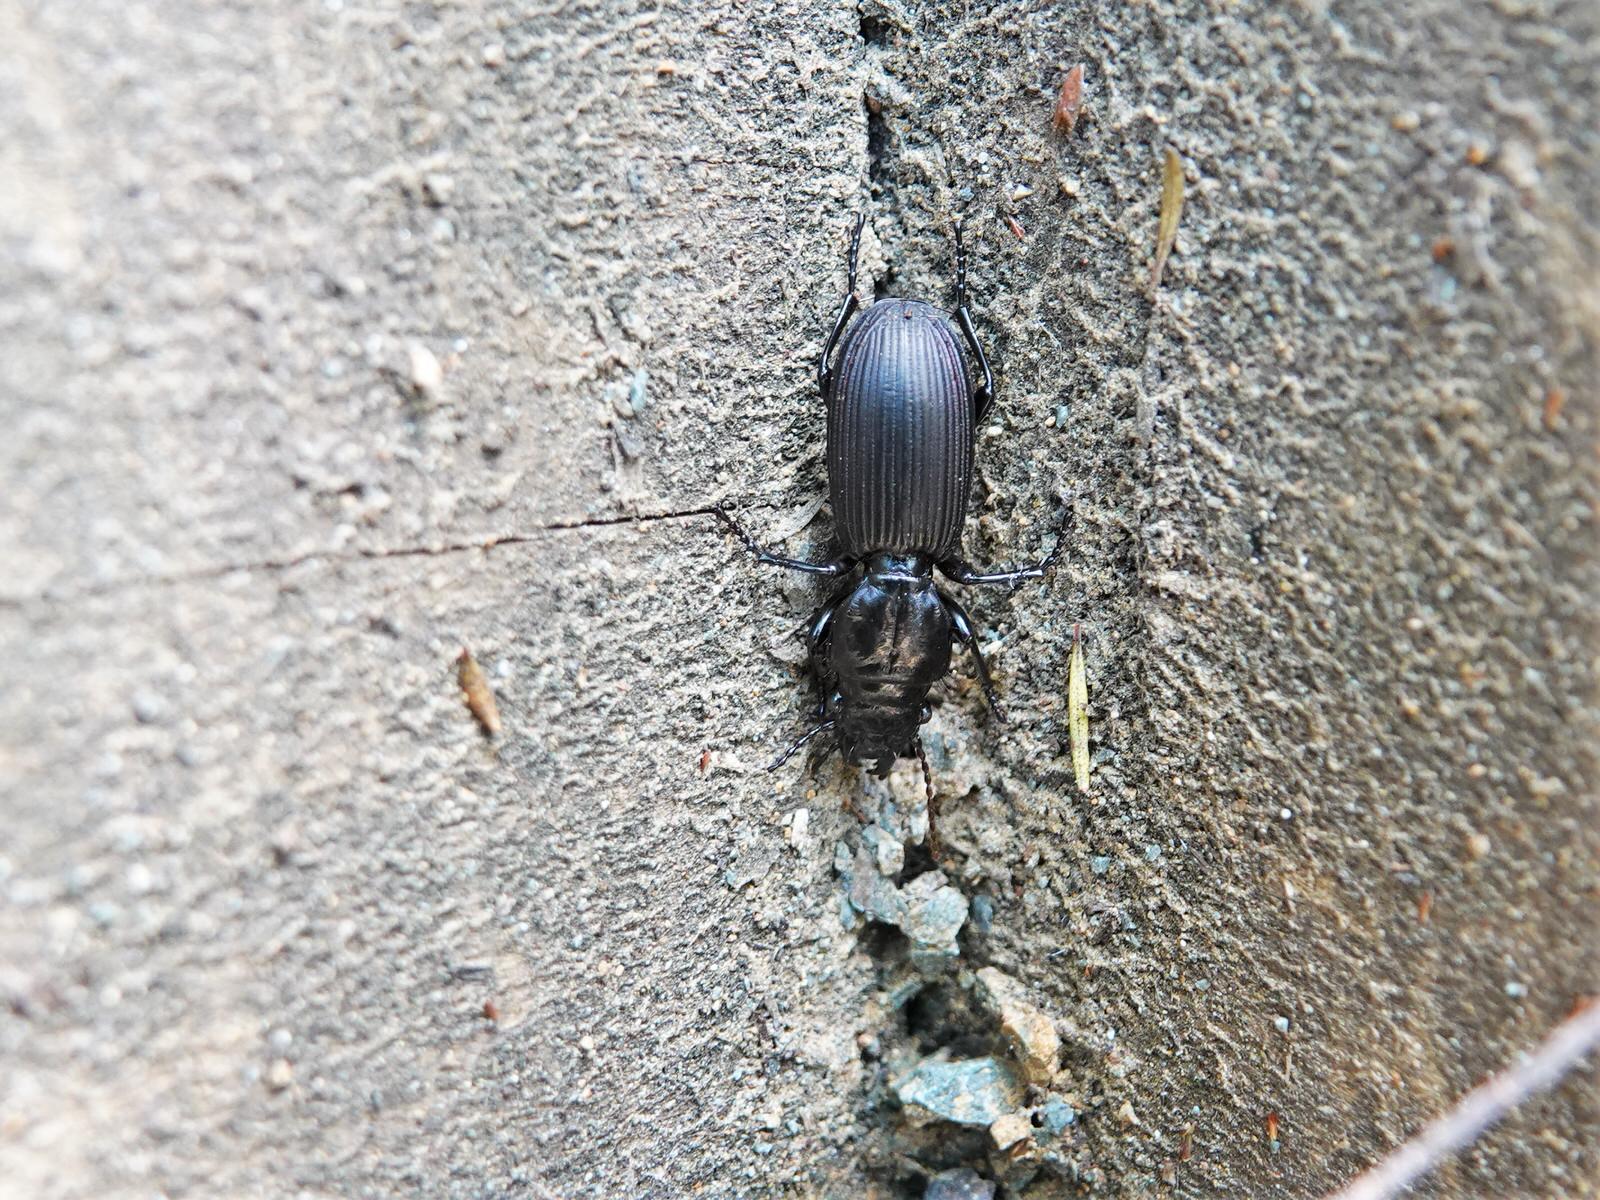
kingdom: Animalia
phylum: Arthropoda
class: Insecta
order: Coleoptera
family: Carabidae
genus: Mecodema
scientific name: Mecodema spiniferum
